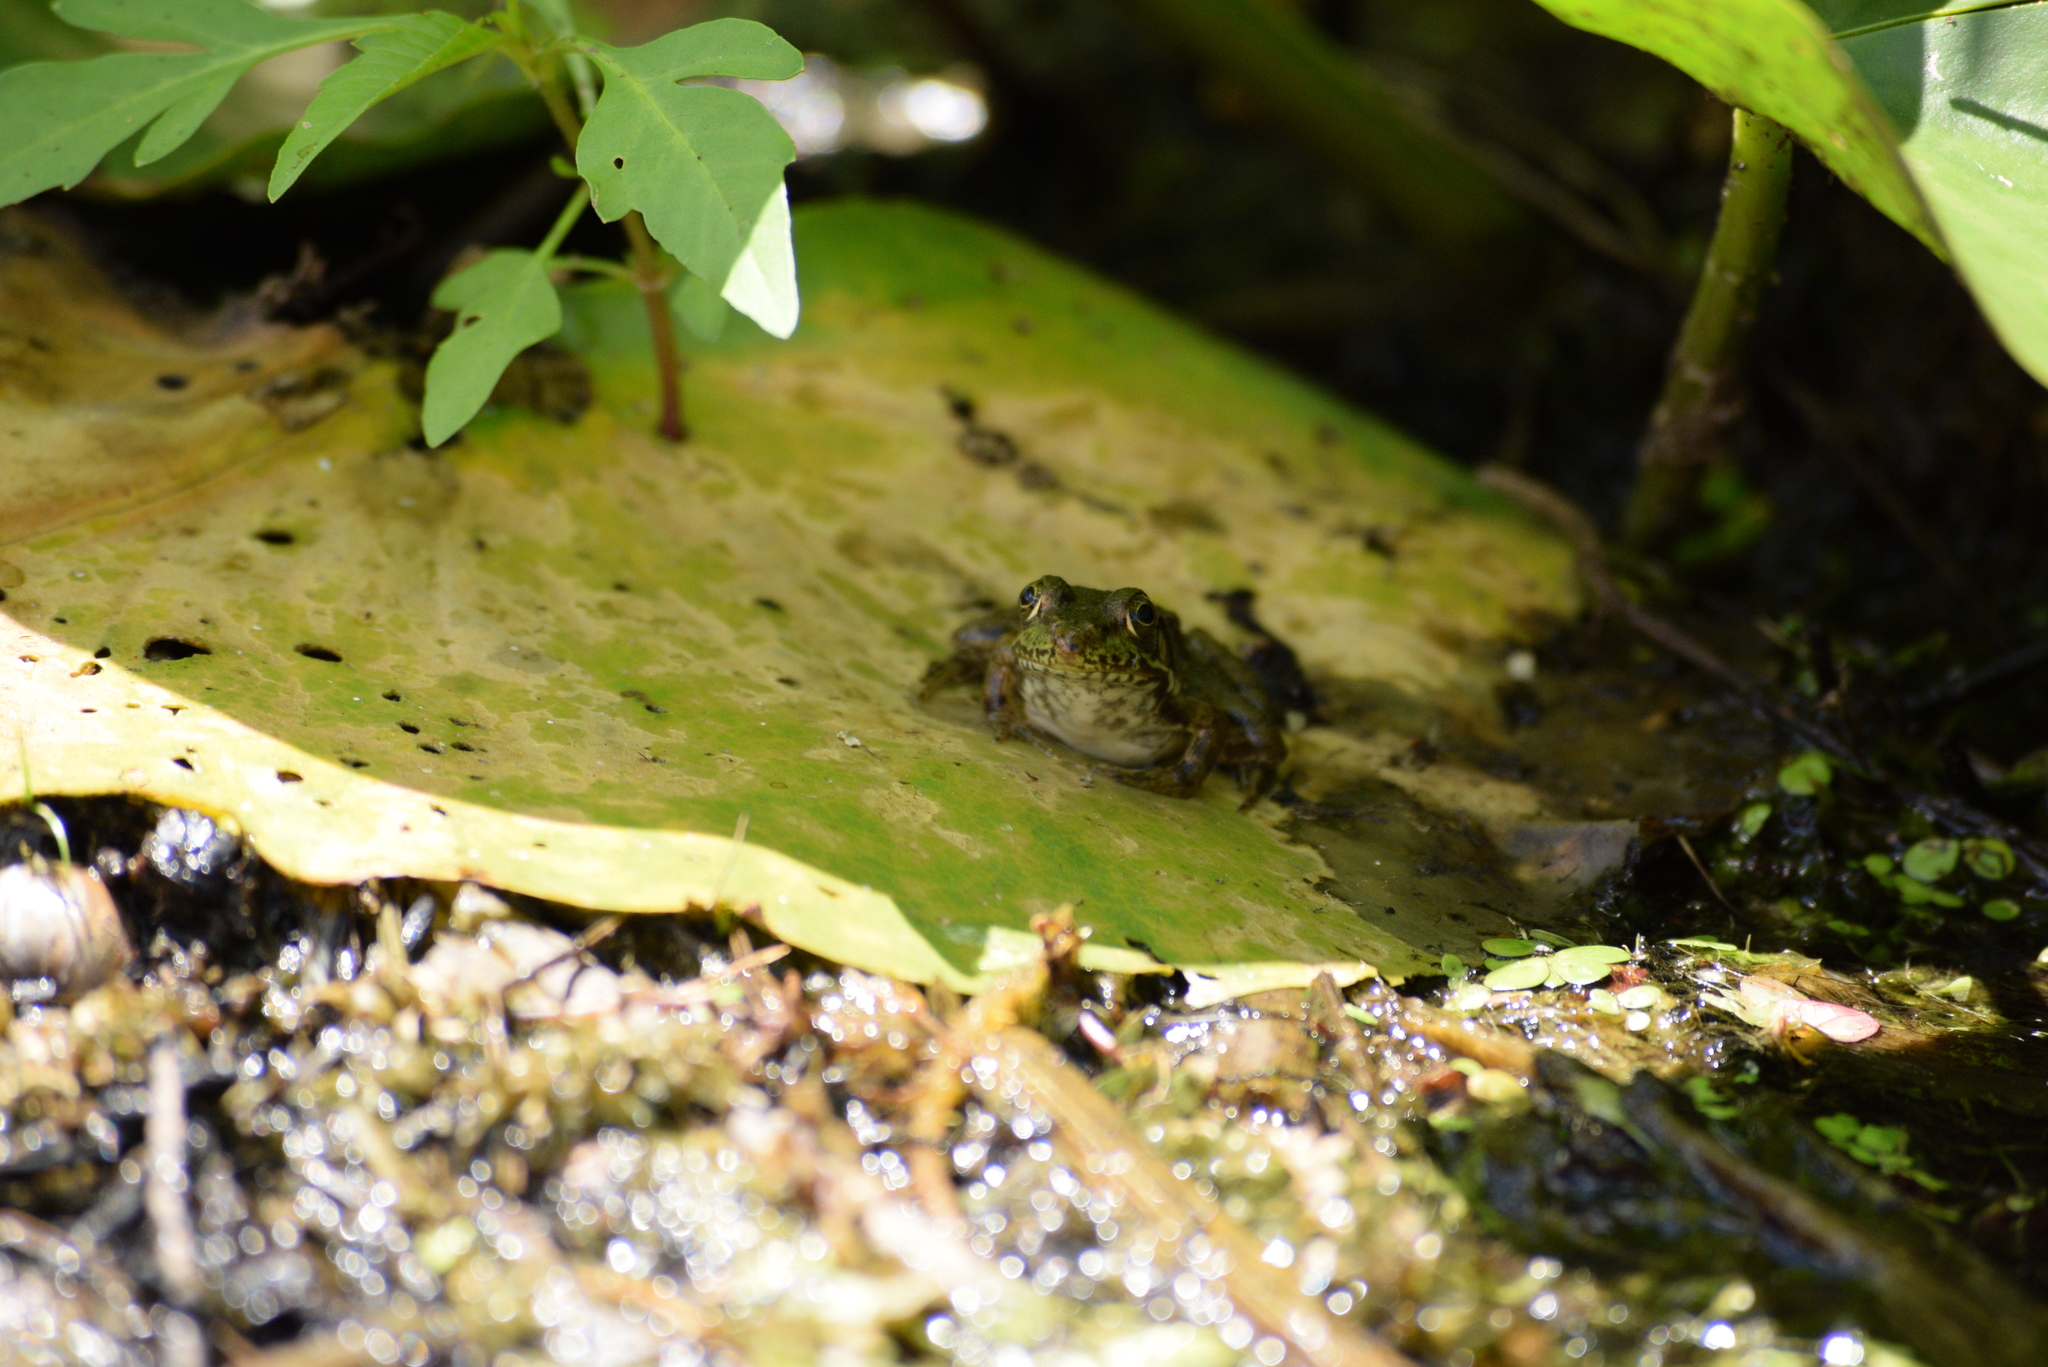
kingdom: Animalia
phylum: Chordata
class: Amphibia
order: Anura
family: Ranidae
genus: Lithobates
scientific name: Lithobates clamitans
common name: Green frog
